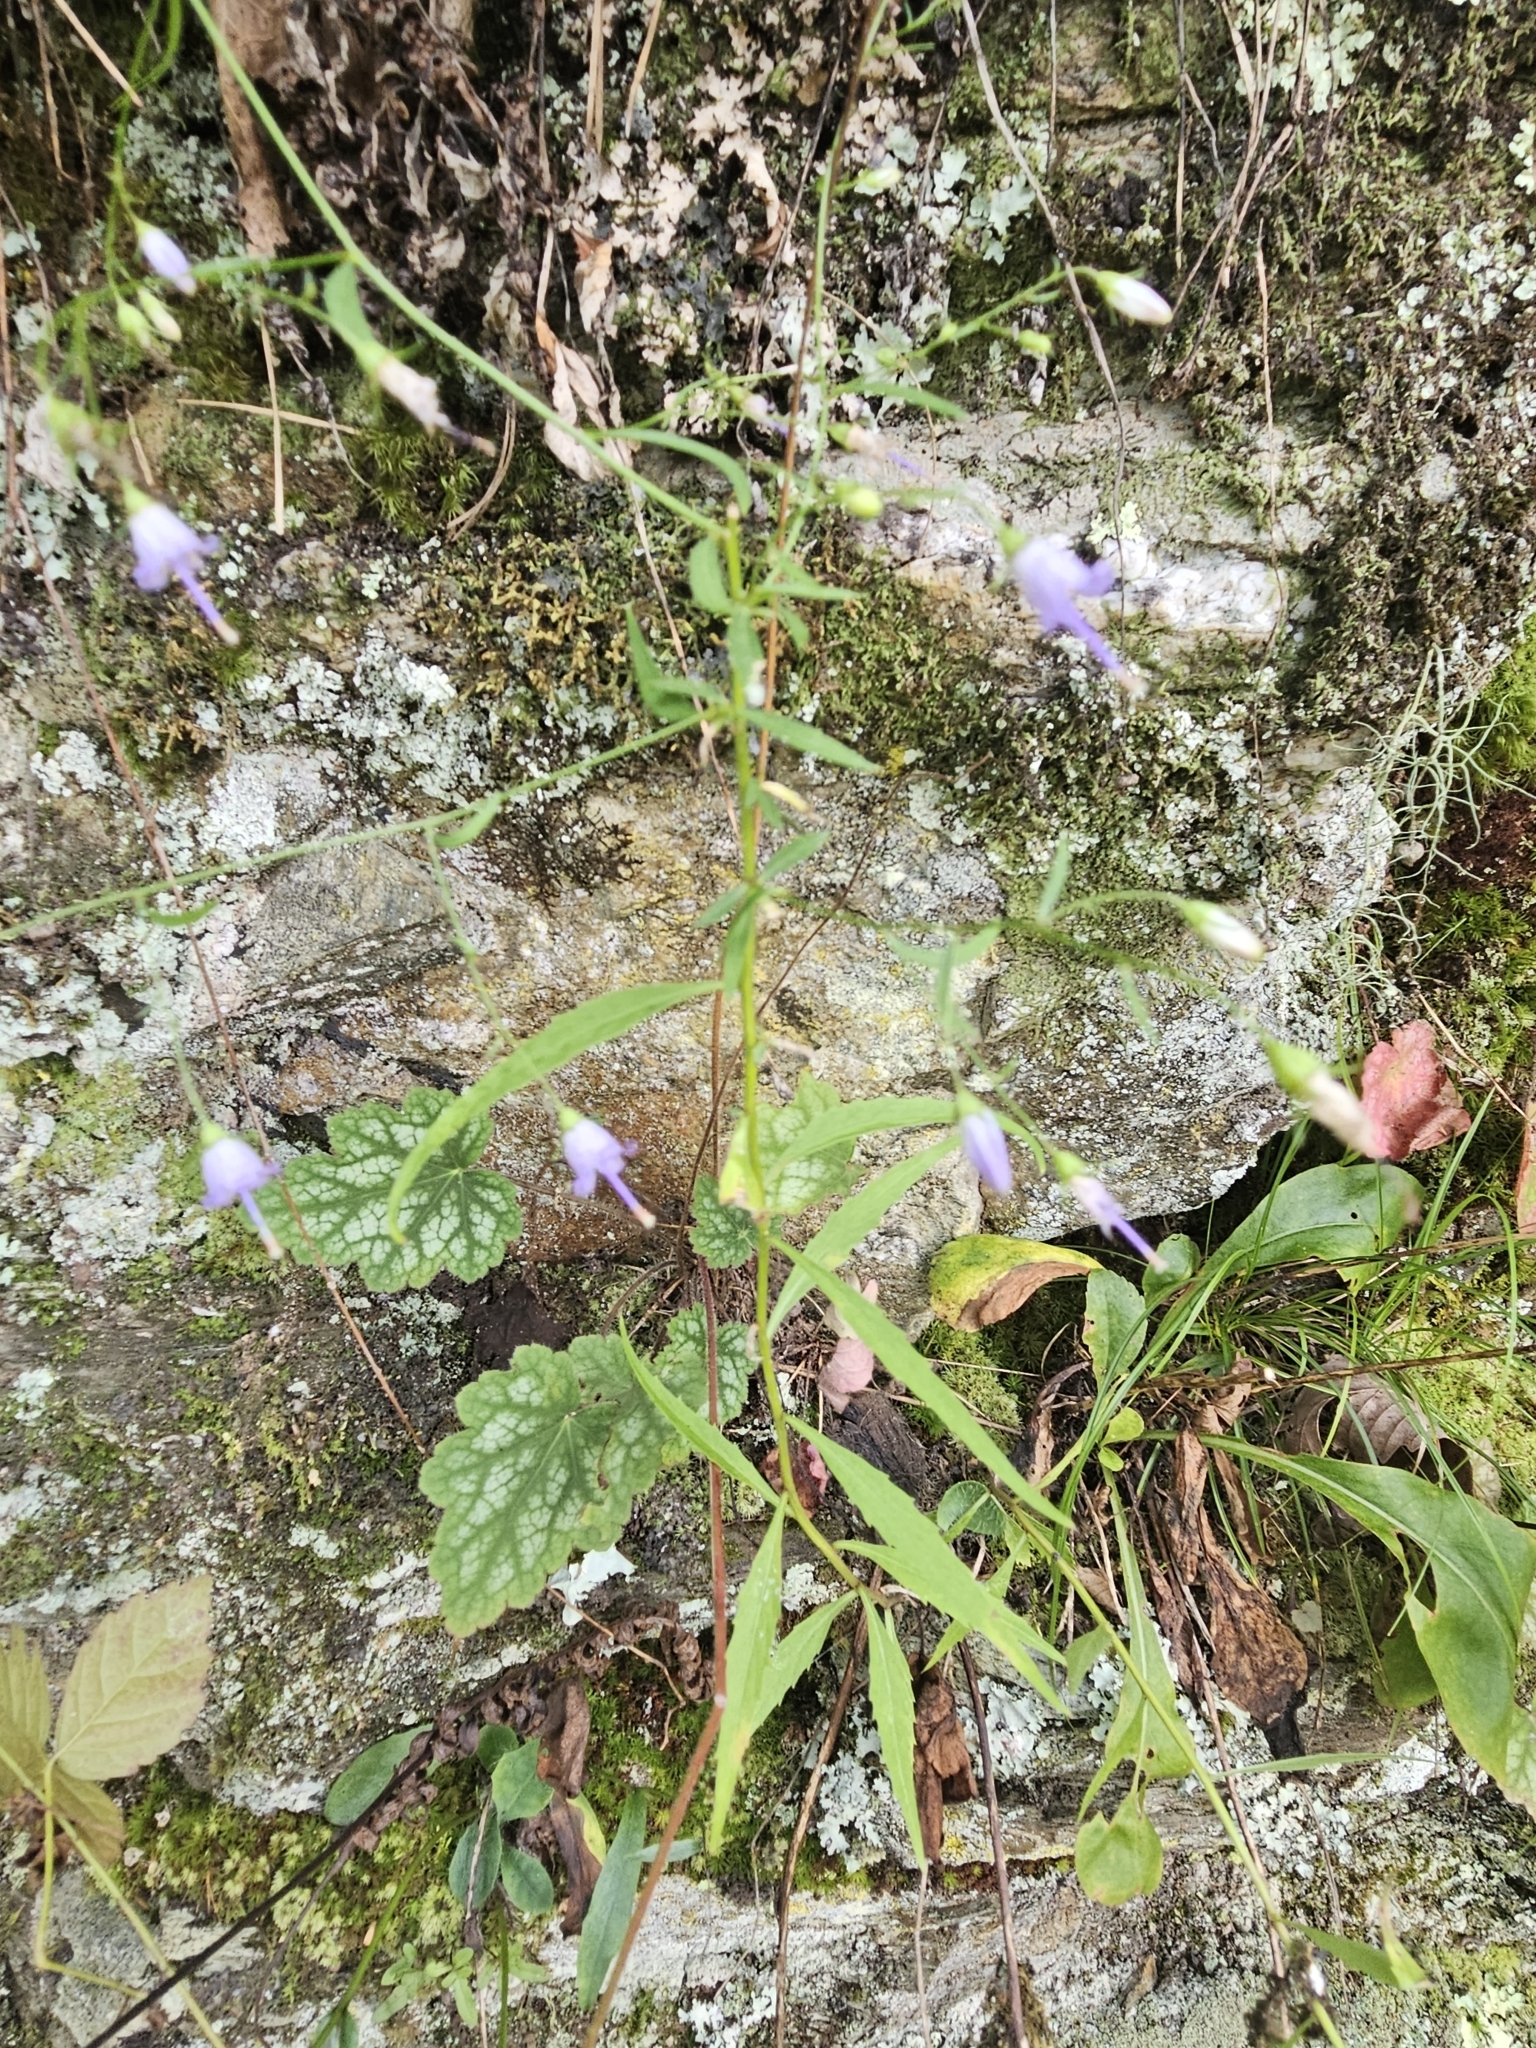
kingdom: Plantae
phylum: Tracheophyta
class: Magnoliopsida
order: Asterales
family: Campanulaceae
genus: Campanula
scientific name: Campanula divaricata
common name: Appalachian bellflower
